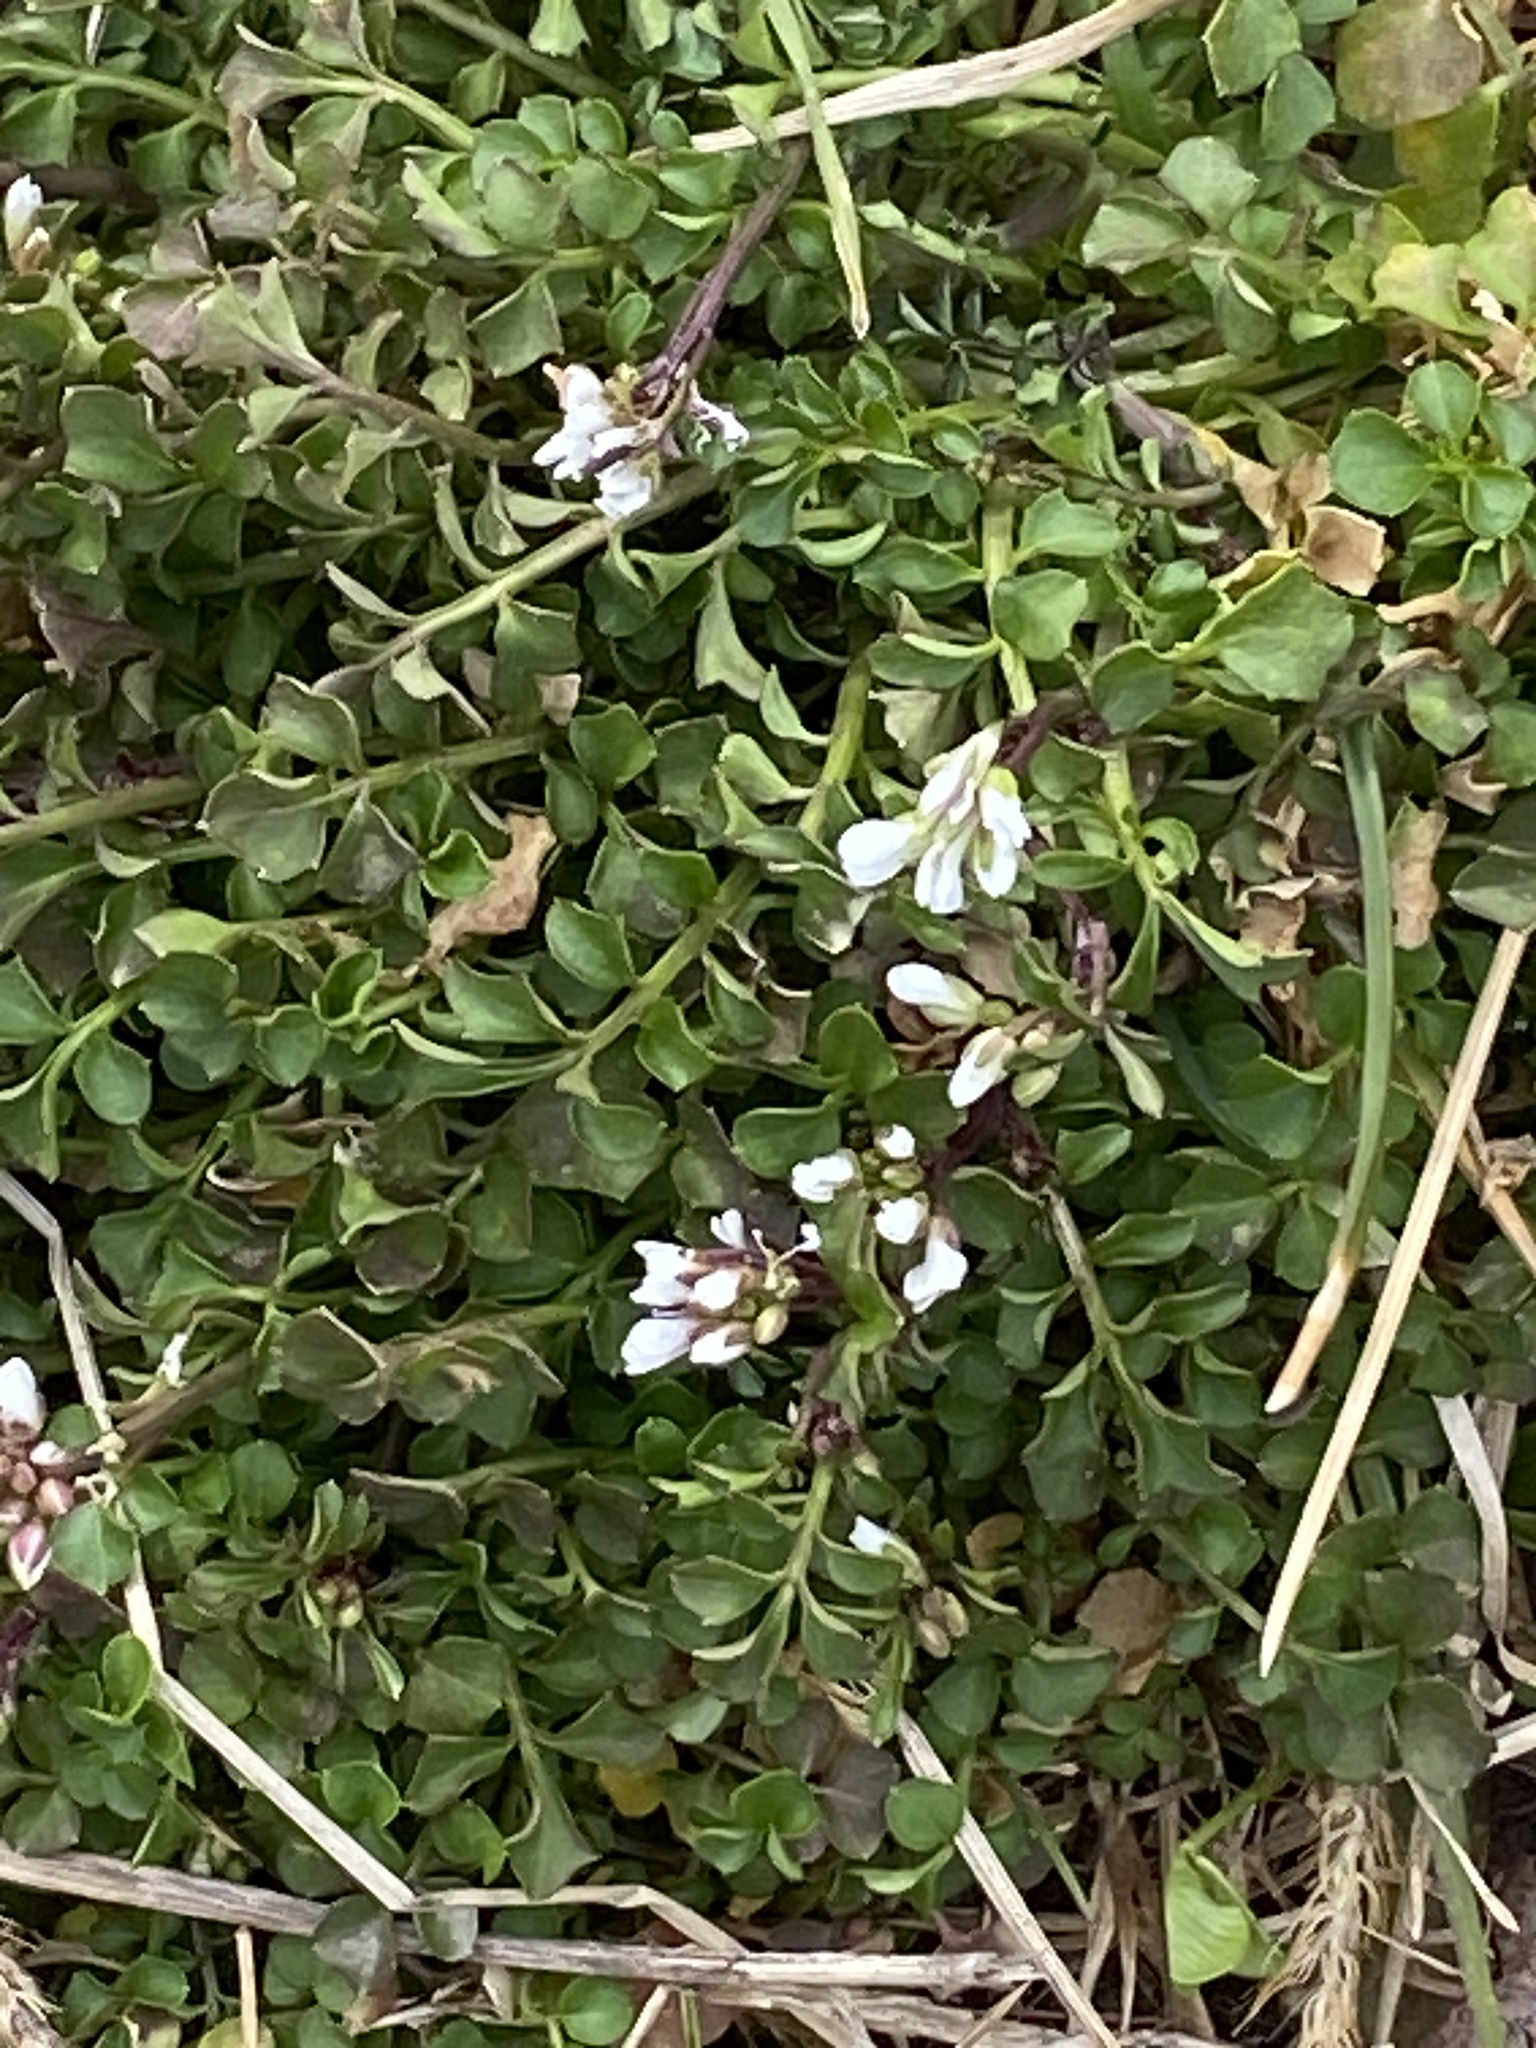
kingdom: Plantae
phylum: Tracheophyta
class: Magnoliopsida
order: Brassicales
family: Brassicaceae
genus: Cardamine
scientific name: Cardamine hirsuta
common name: Hairy bittercress
